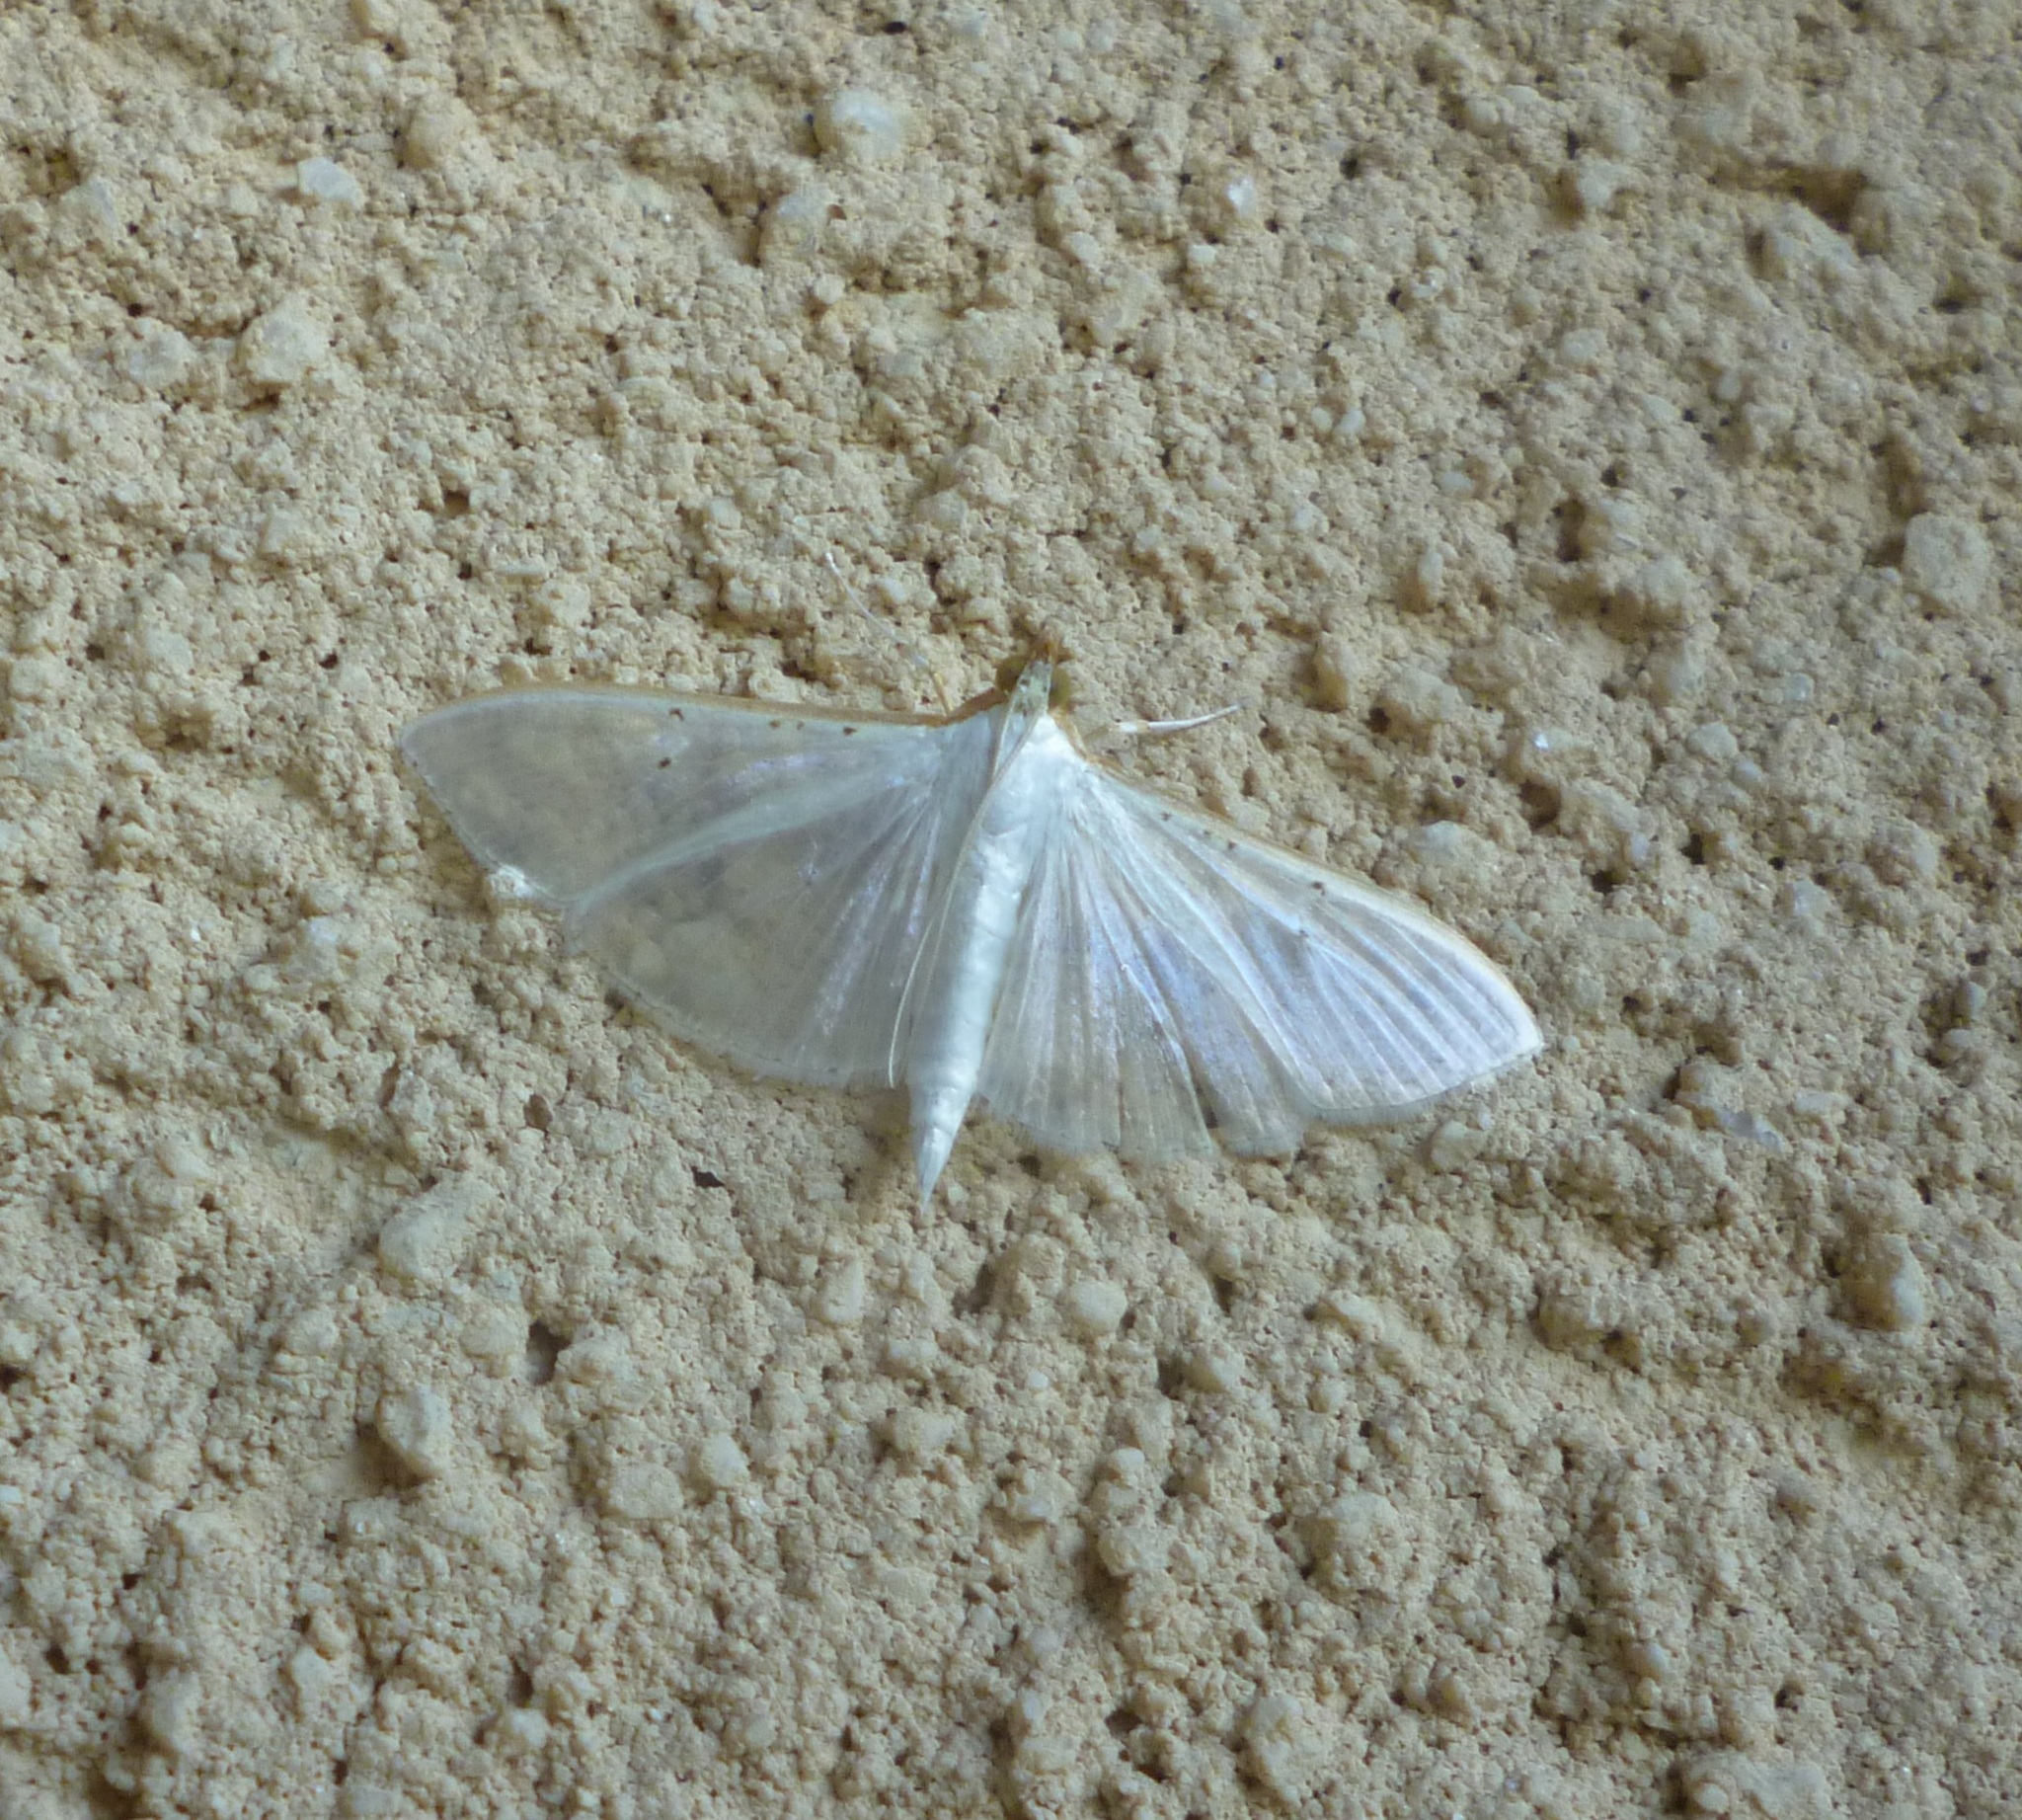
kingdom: Animalia
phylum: Arthropoda
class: Insecta
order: Lepidoptera
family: Crambidae
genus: Palpita
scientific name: Palpita vitrealis
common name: Olive-tree pearl
